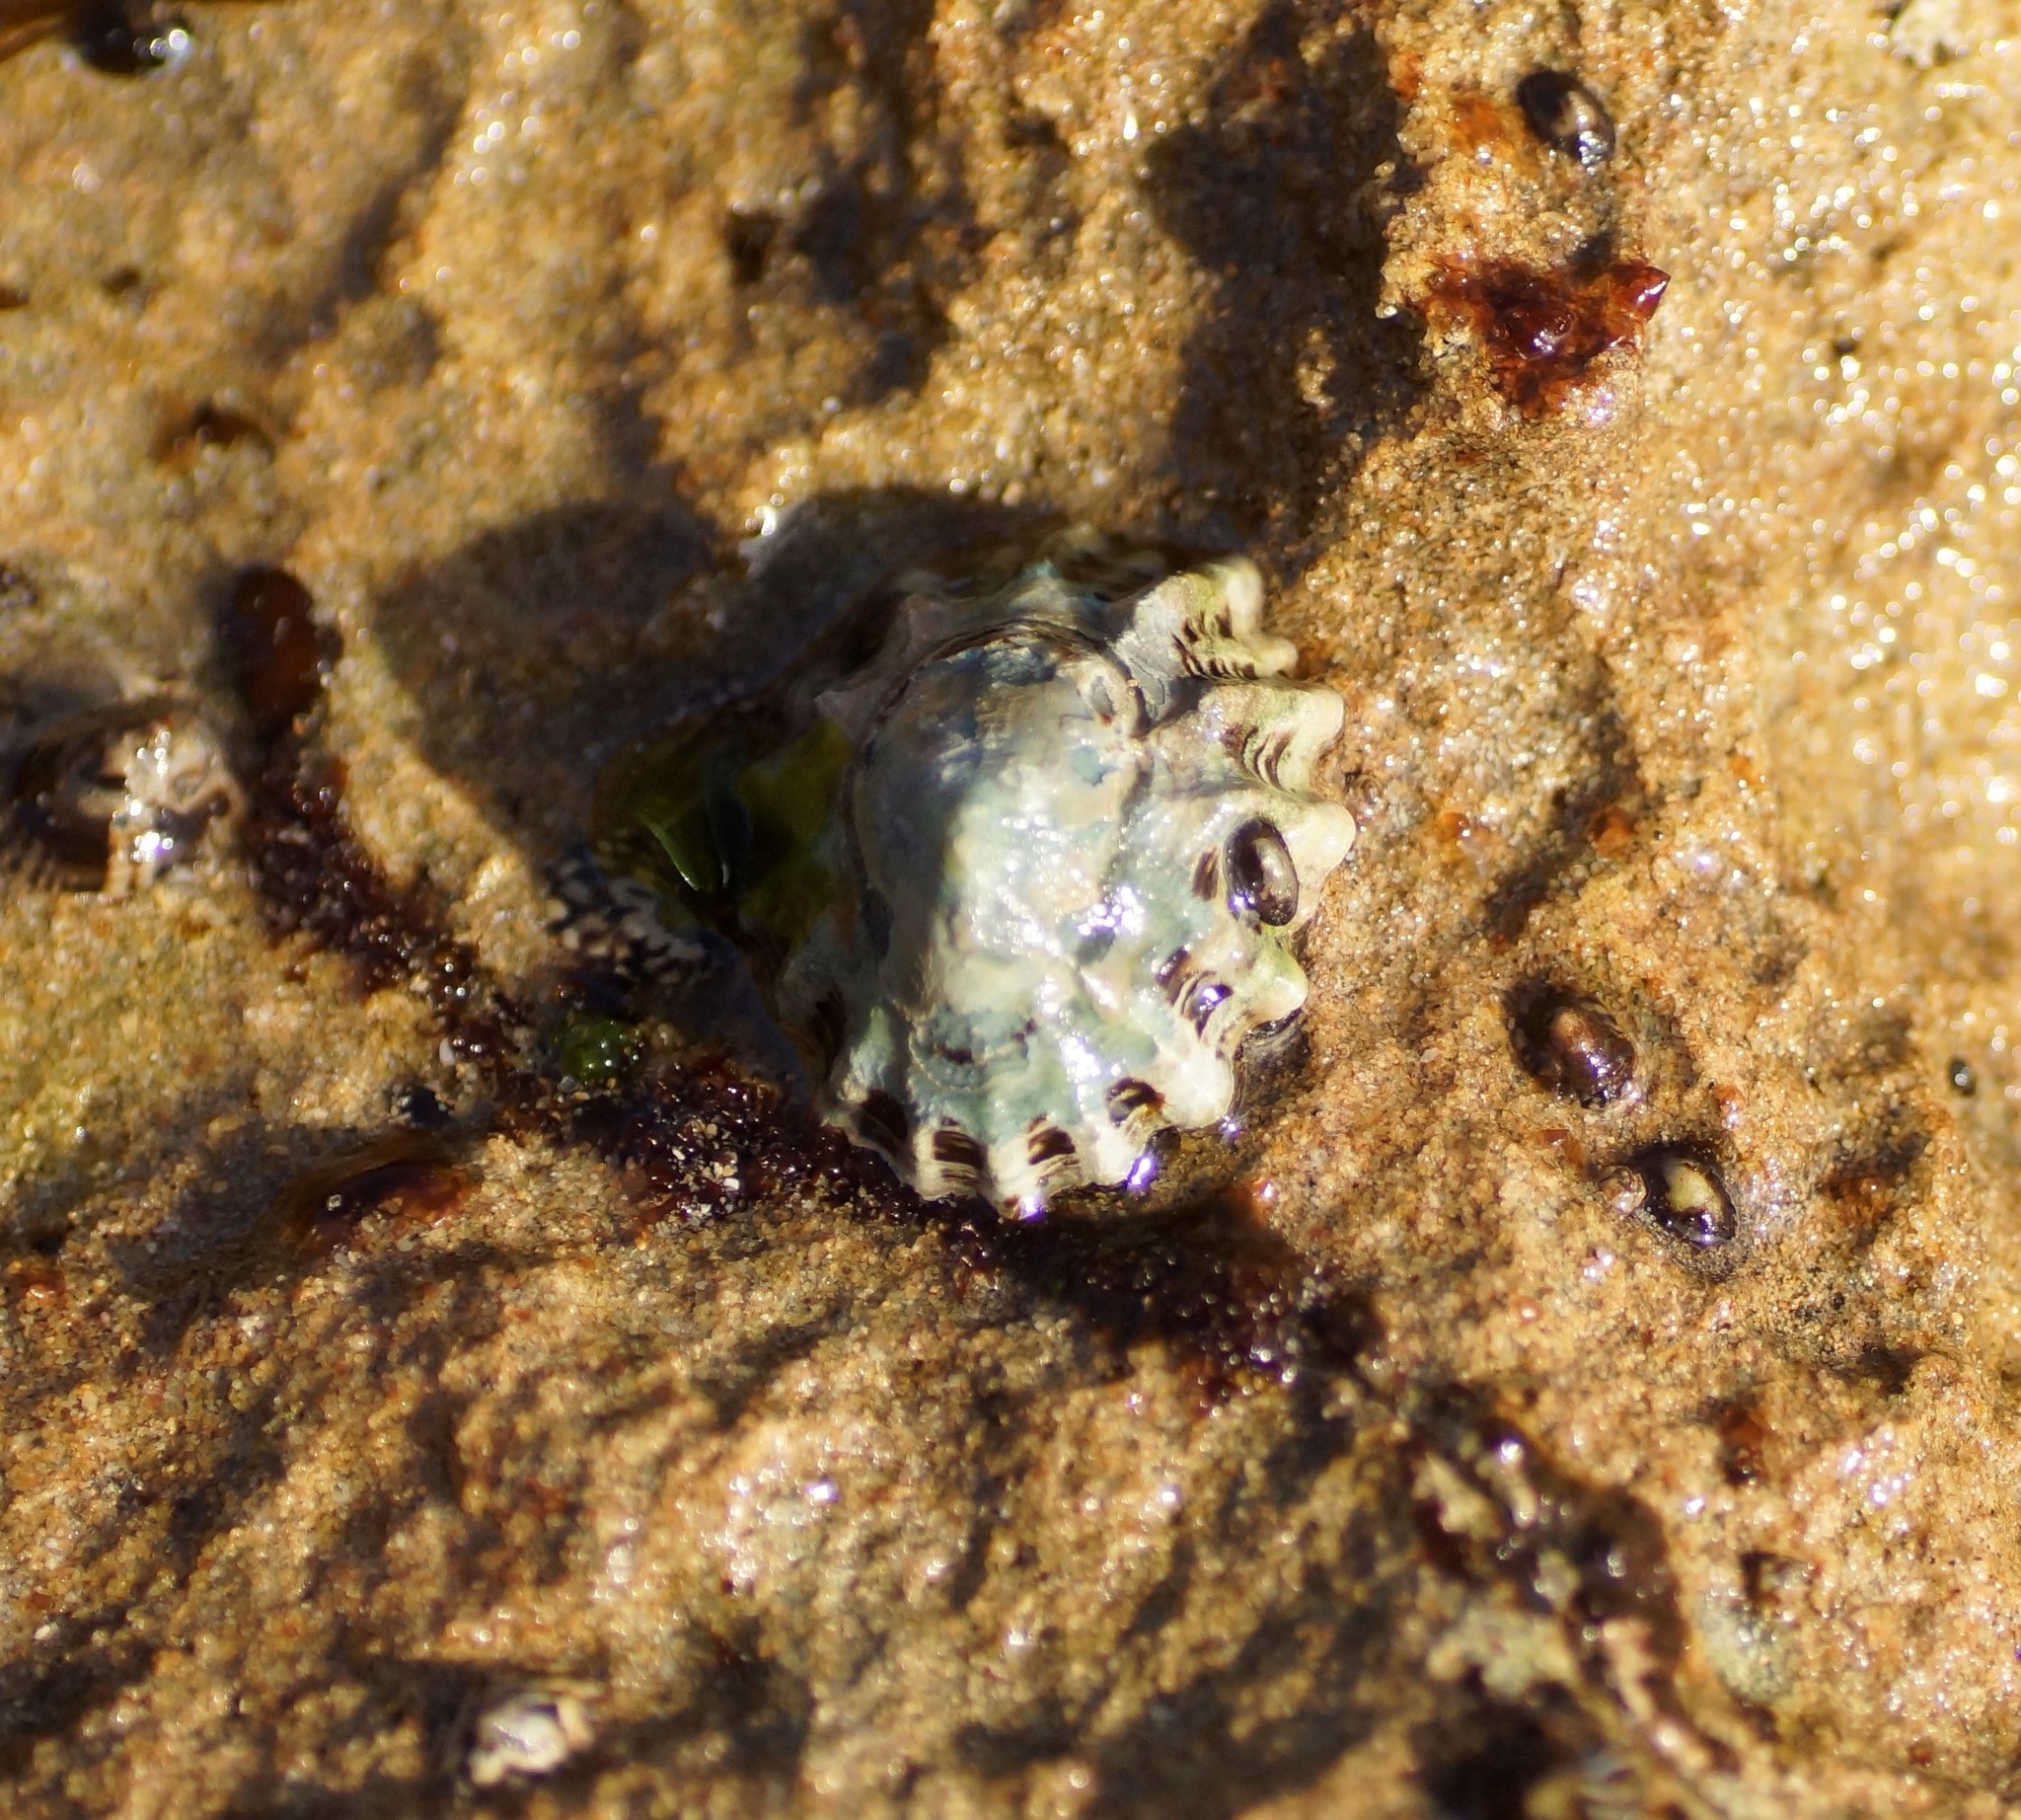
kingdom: Animalia
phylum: Mollusca
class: Gastropoda
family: Lottiidae
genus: Patelloida
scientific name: Patelloida alticostata
